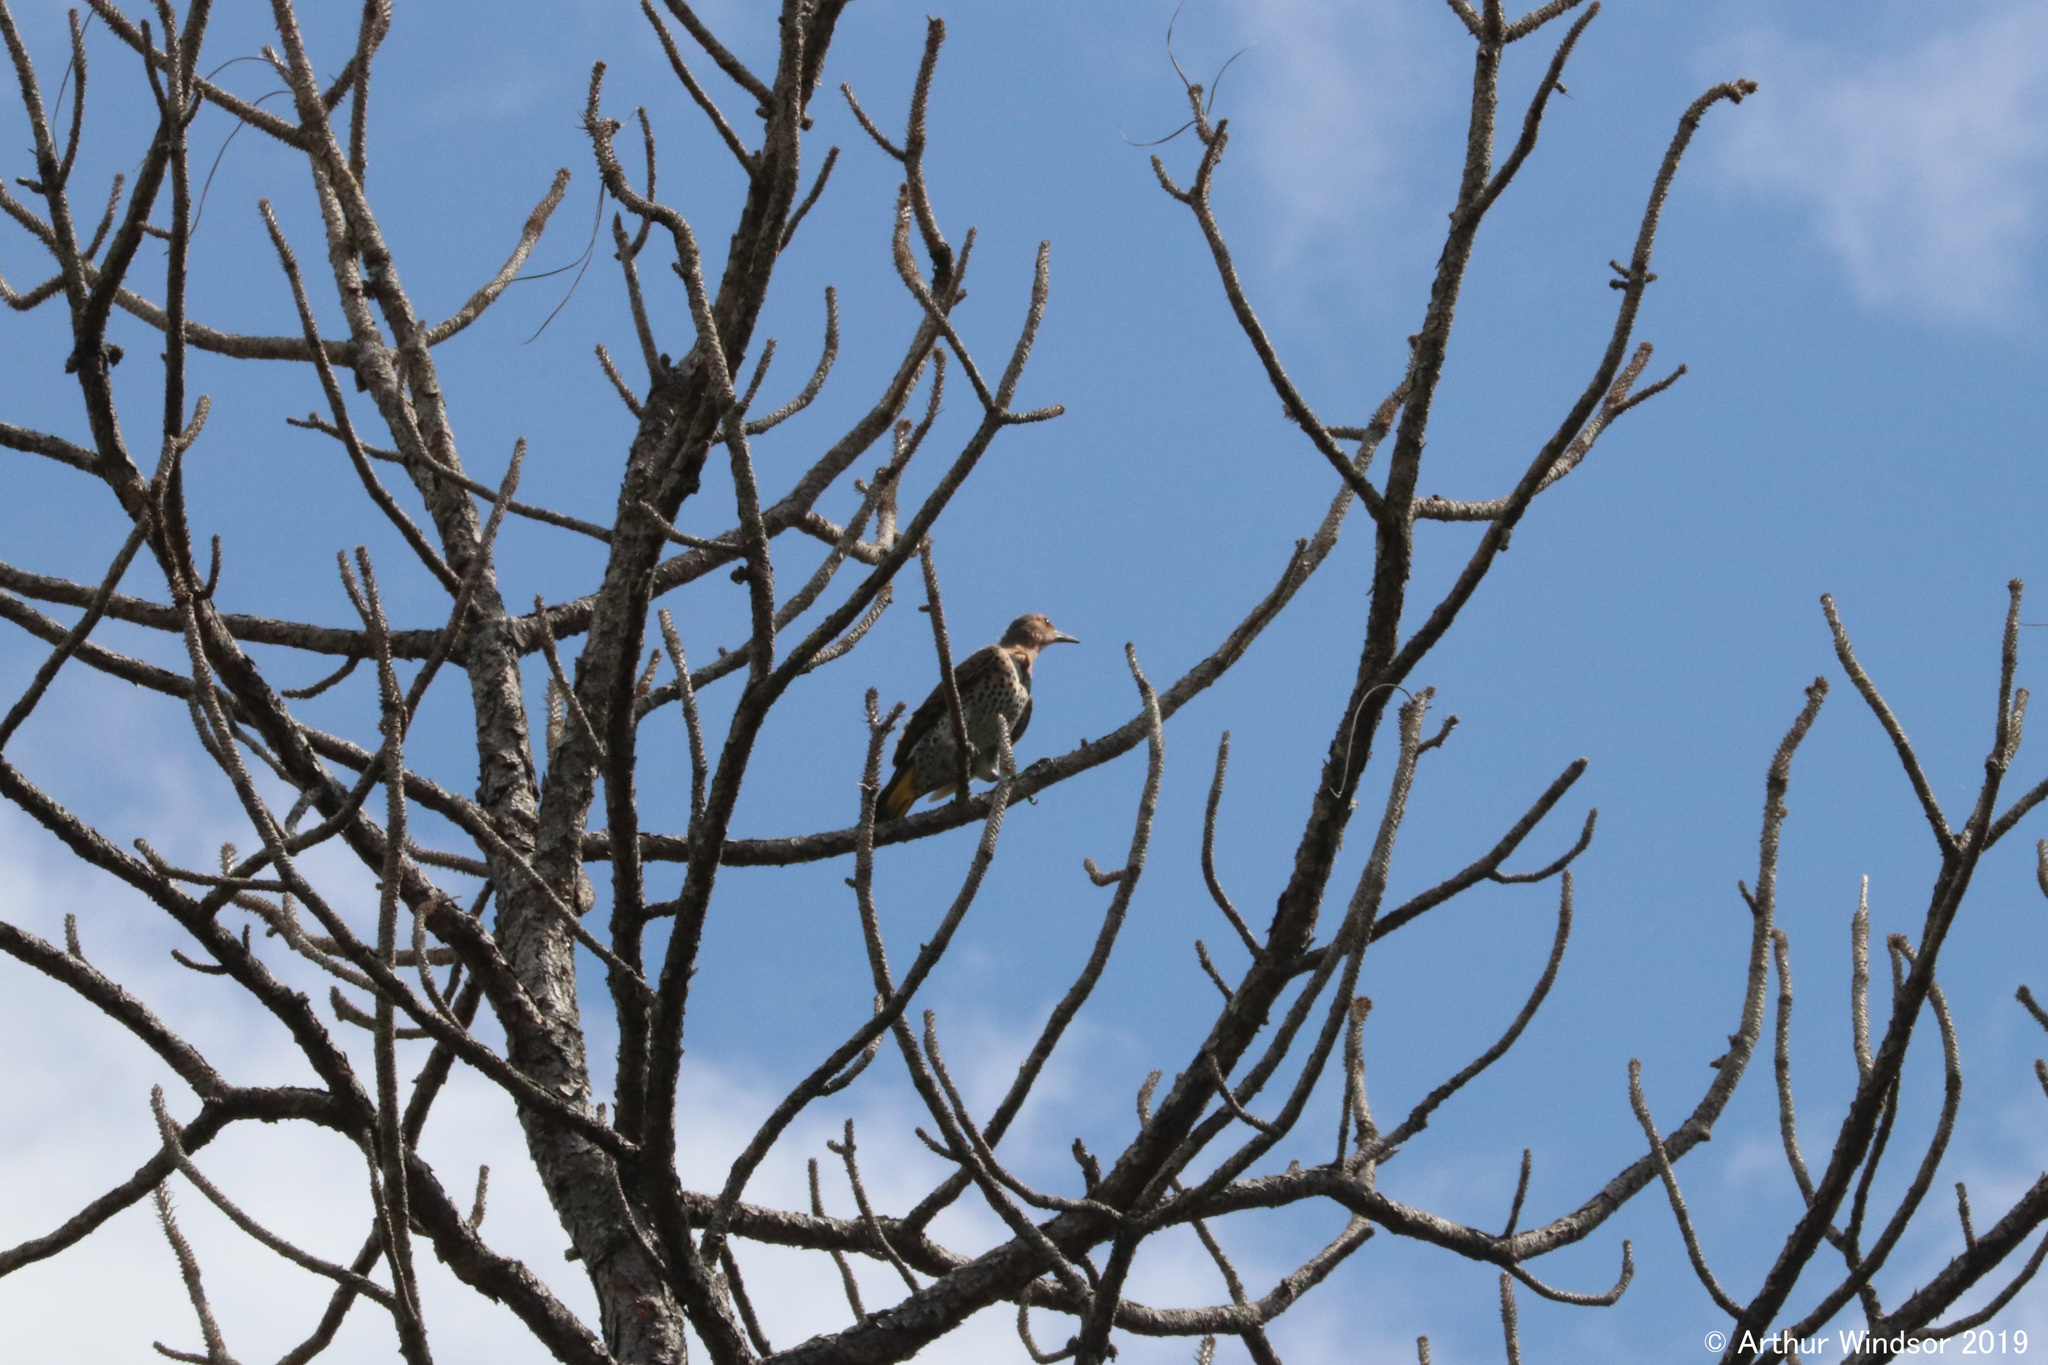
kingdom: Animalia
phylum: Chordata
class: Aves
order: Piciformes
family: Picidae
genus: Colaptes
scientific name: Colaptes auratus
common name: Northern flicker
